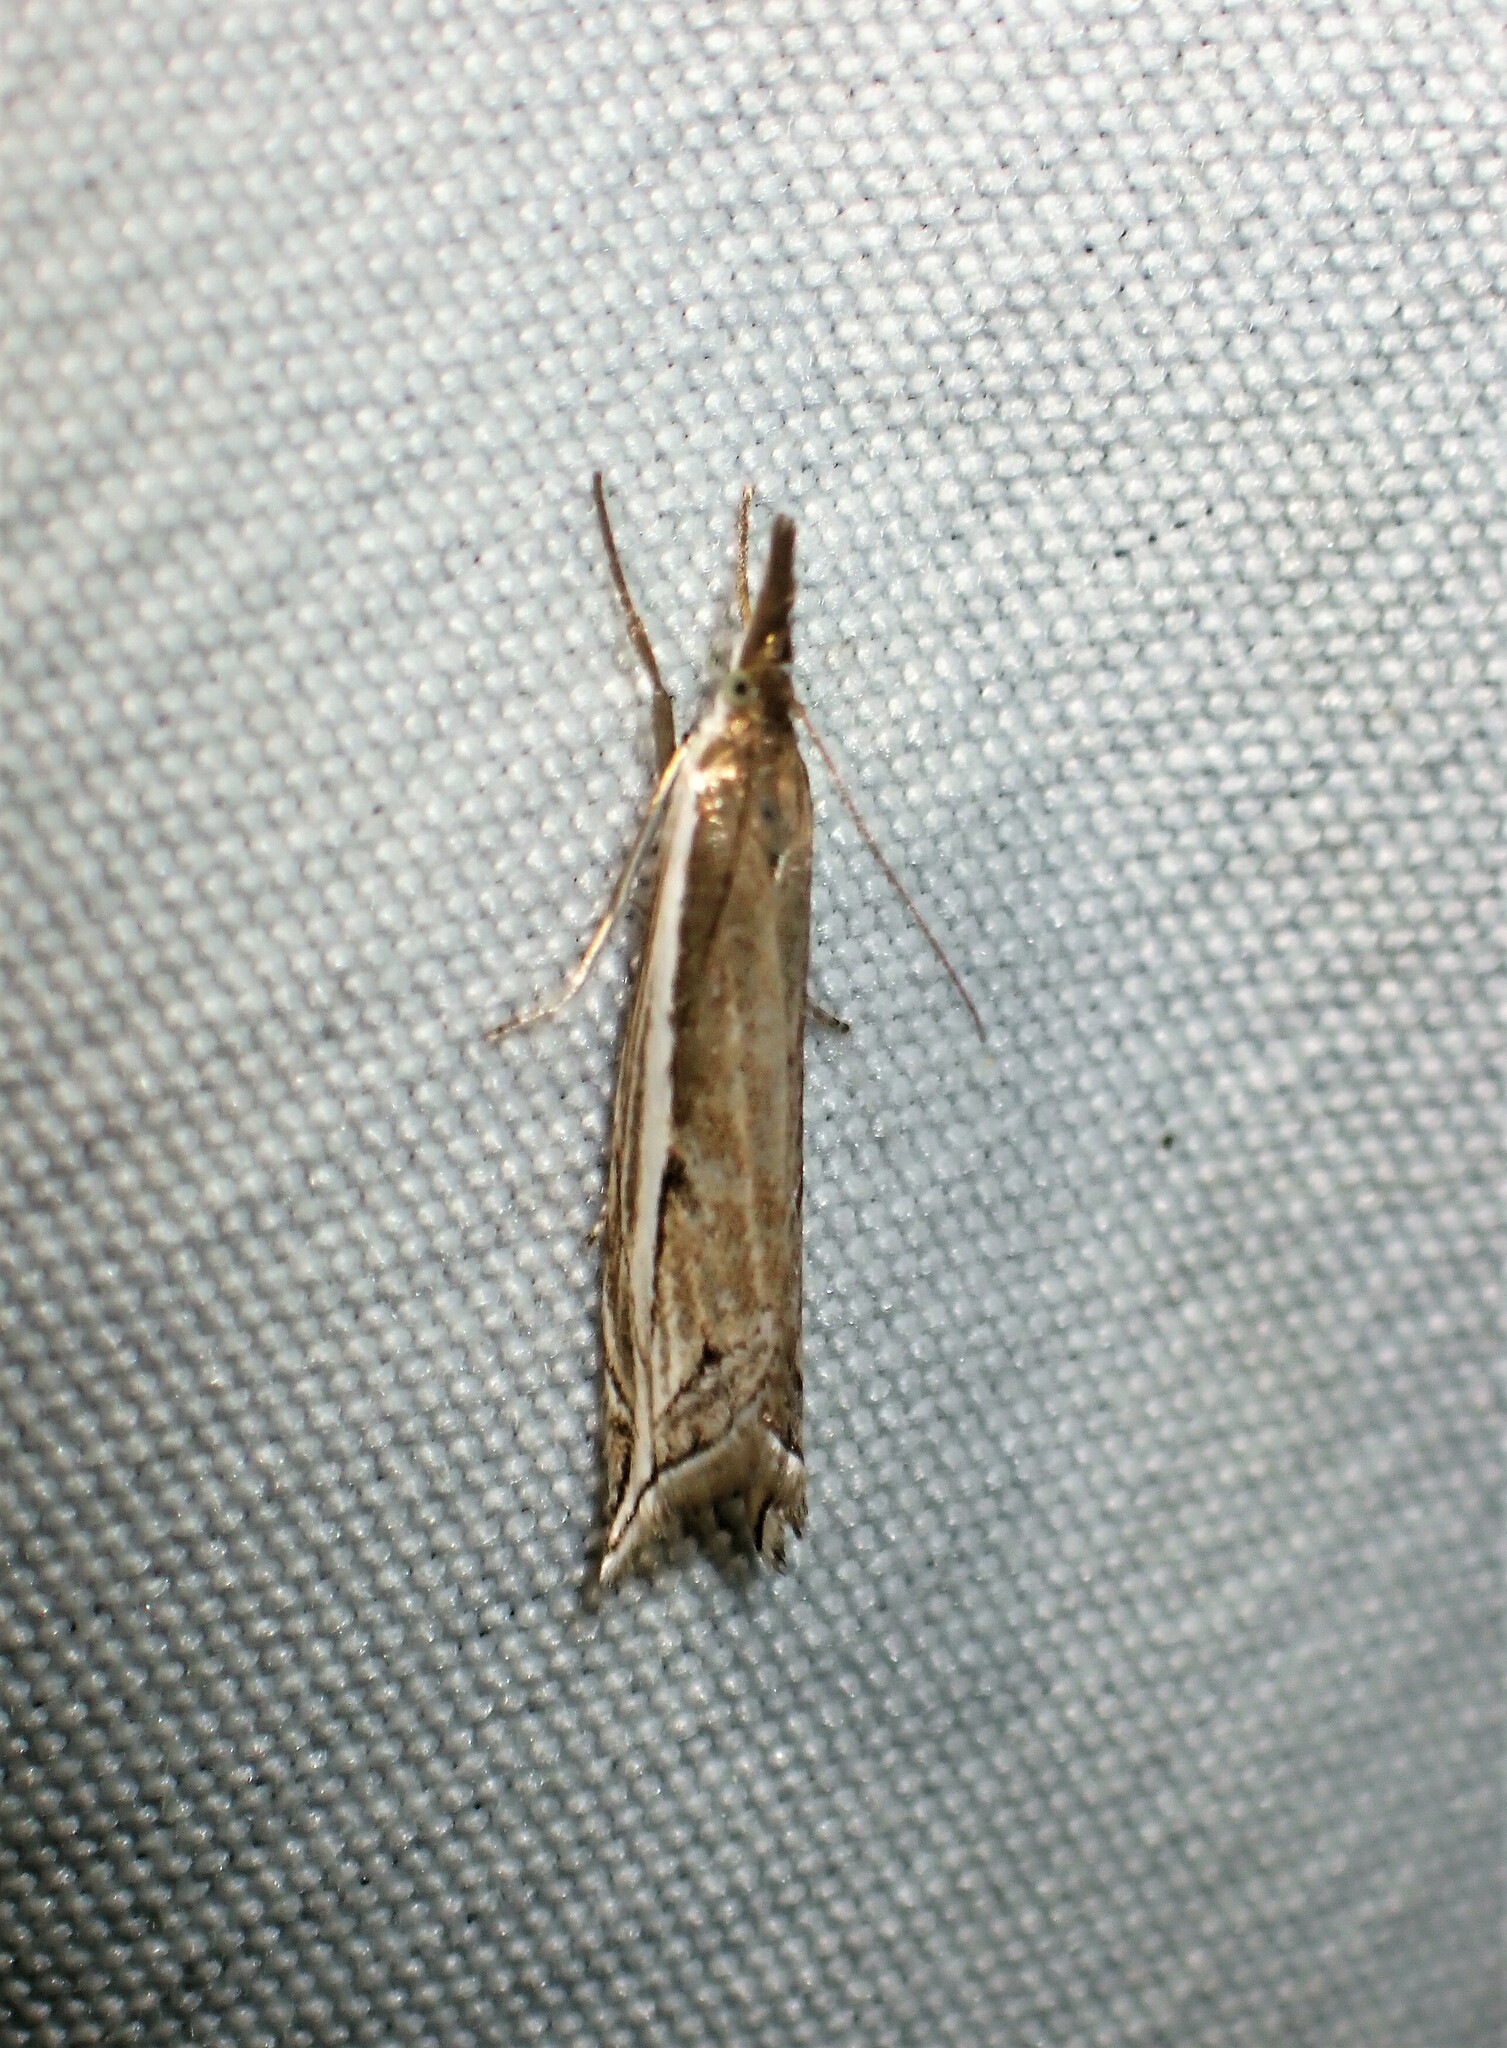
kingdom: Animalia
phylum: Arthropoda
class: Insecta
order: Lepidoptera
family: Crambidae
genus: Raphiptera
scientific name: Raphiptera argillaceellus
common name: Diminutive grass-veneer
